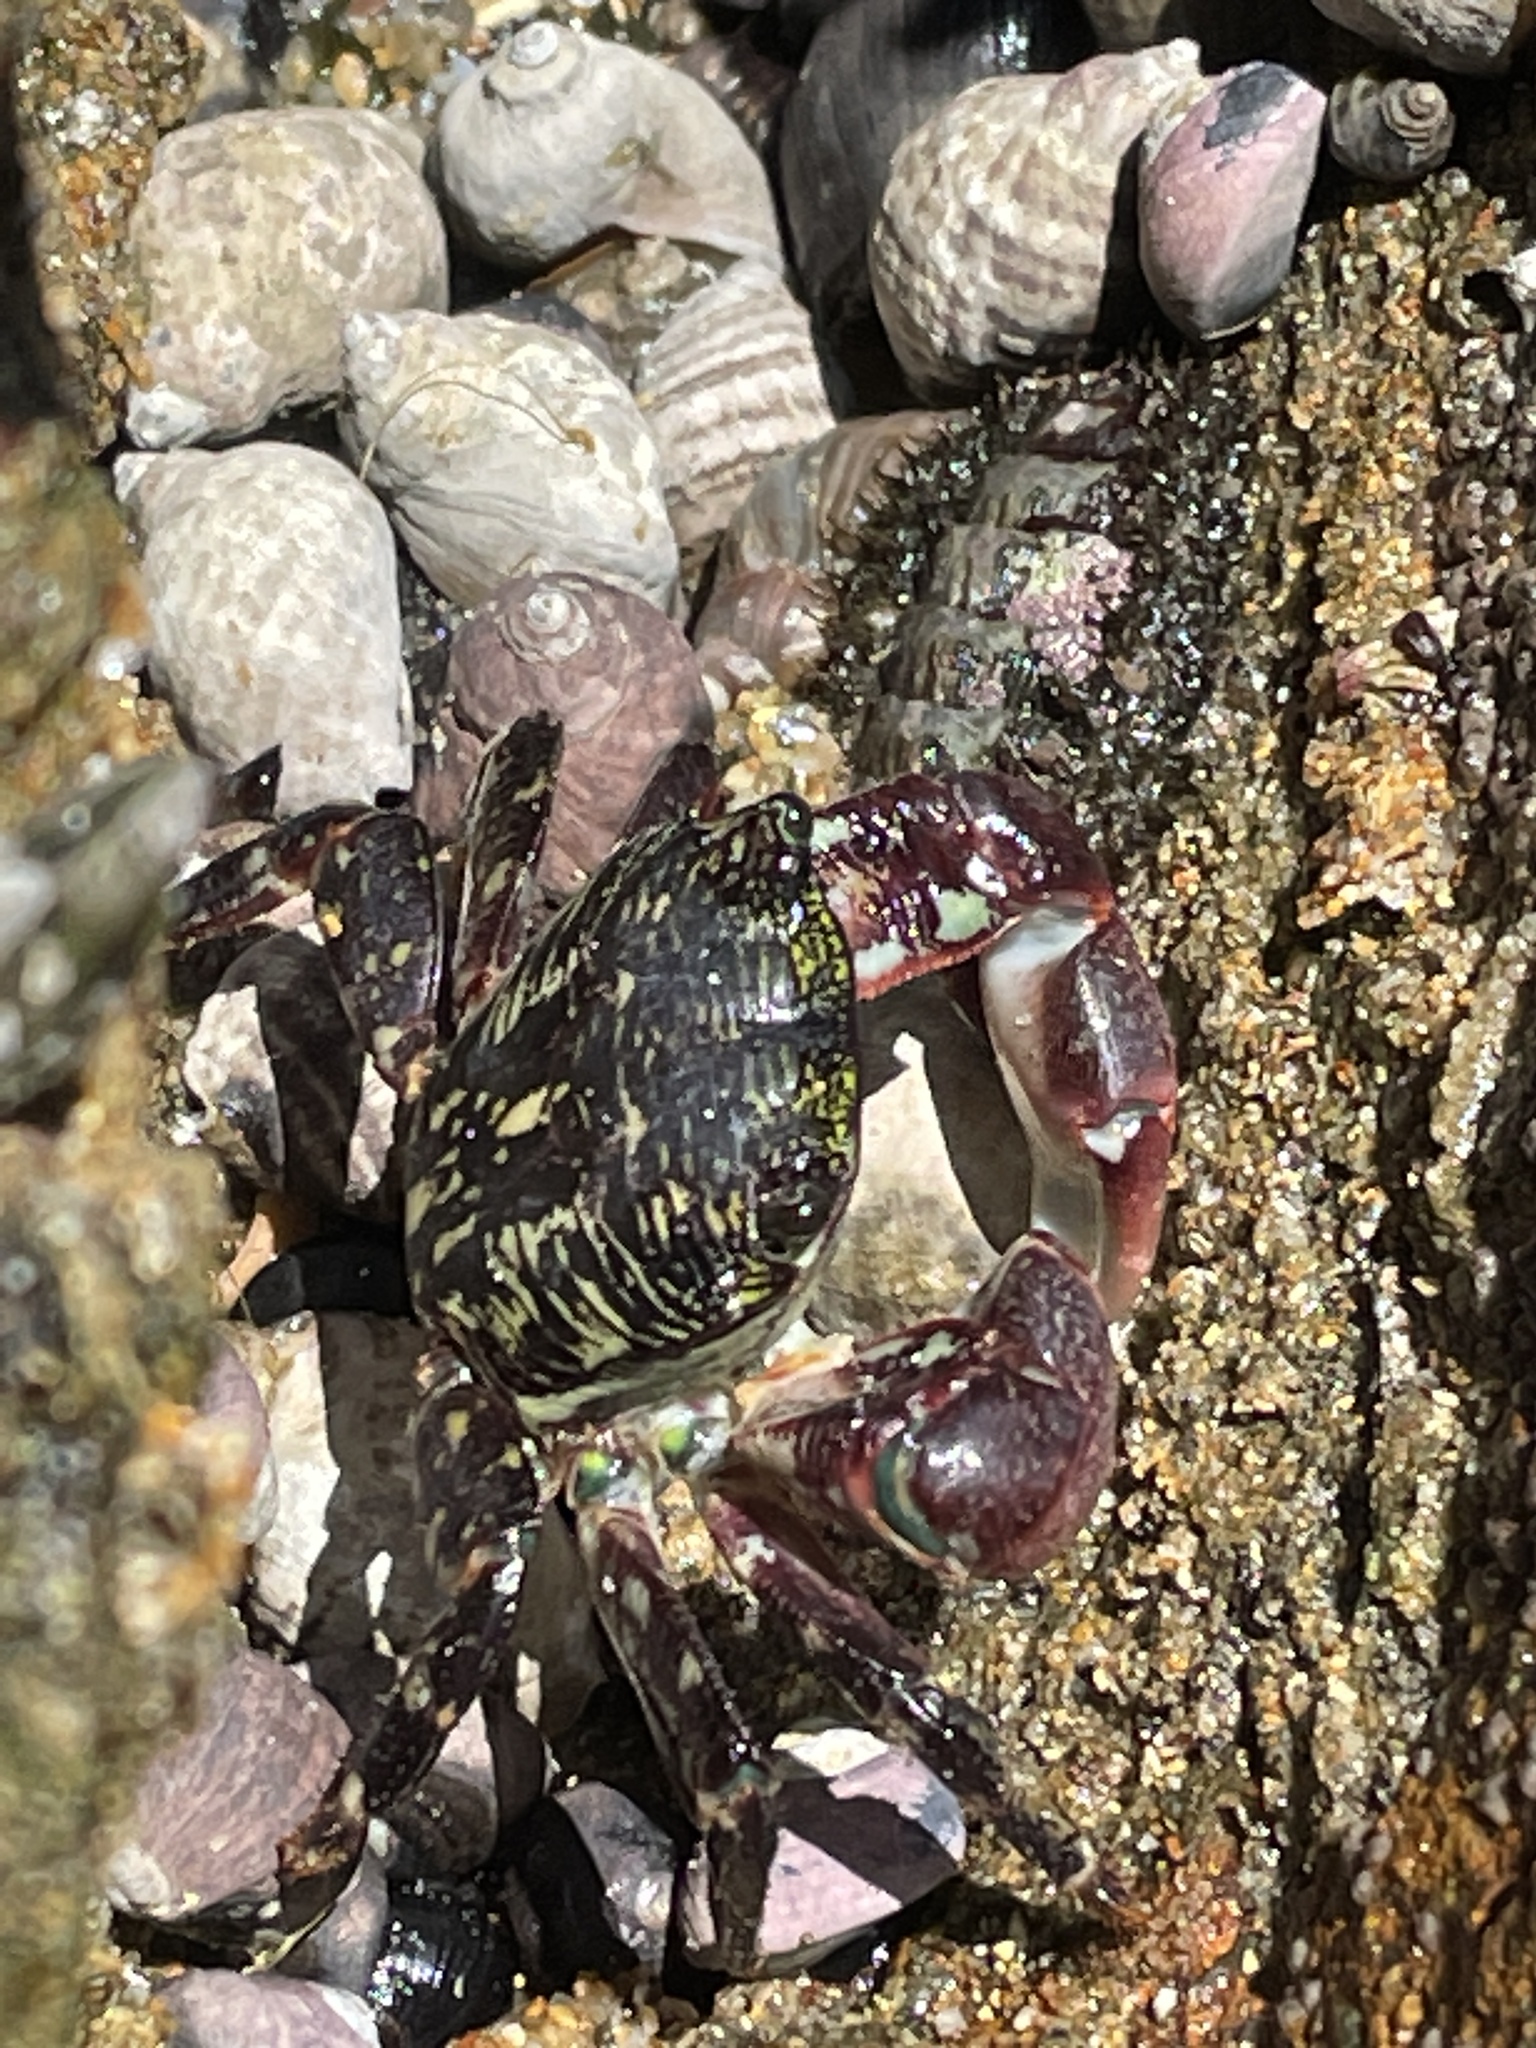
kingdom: Animalia
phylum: Arthropoda
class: Malacostraca
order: Decapoda
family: Grapsidae
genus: Pachygrapsus
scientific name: Pachygrapsus crassipes
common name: Striped shore crab
